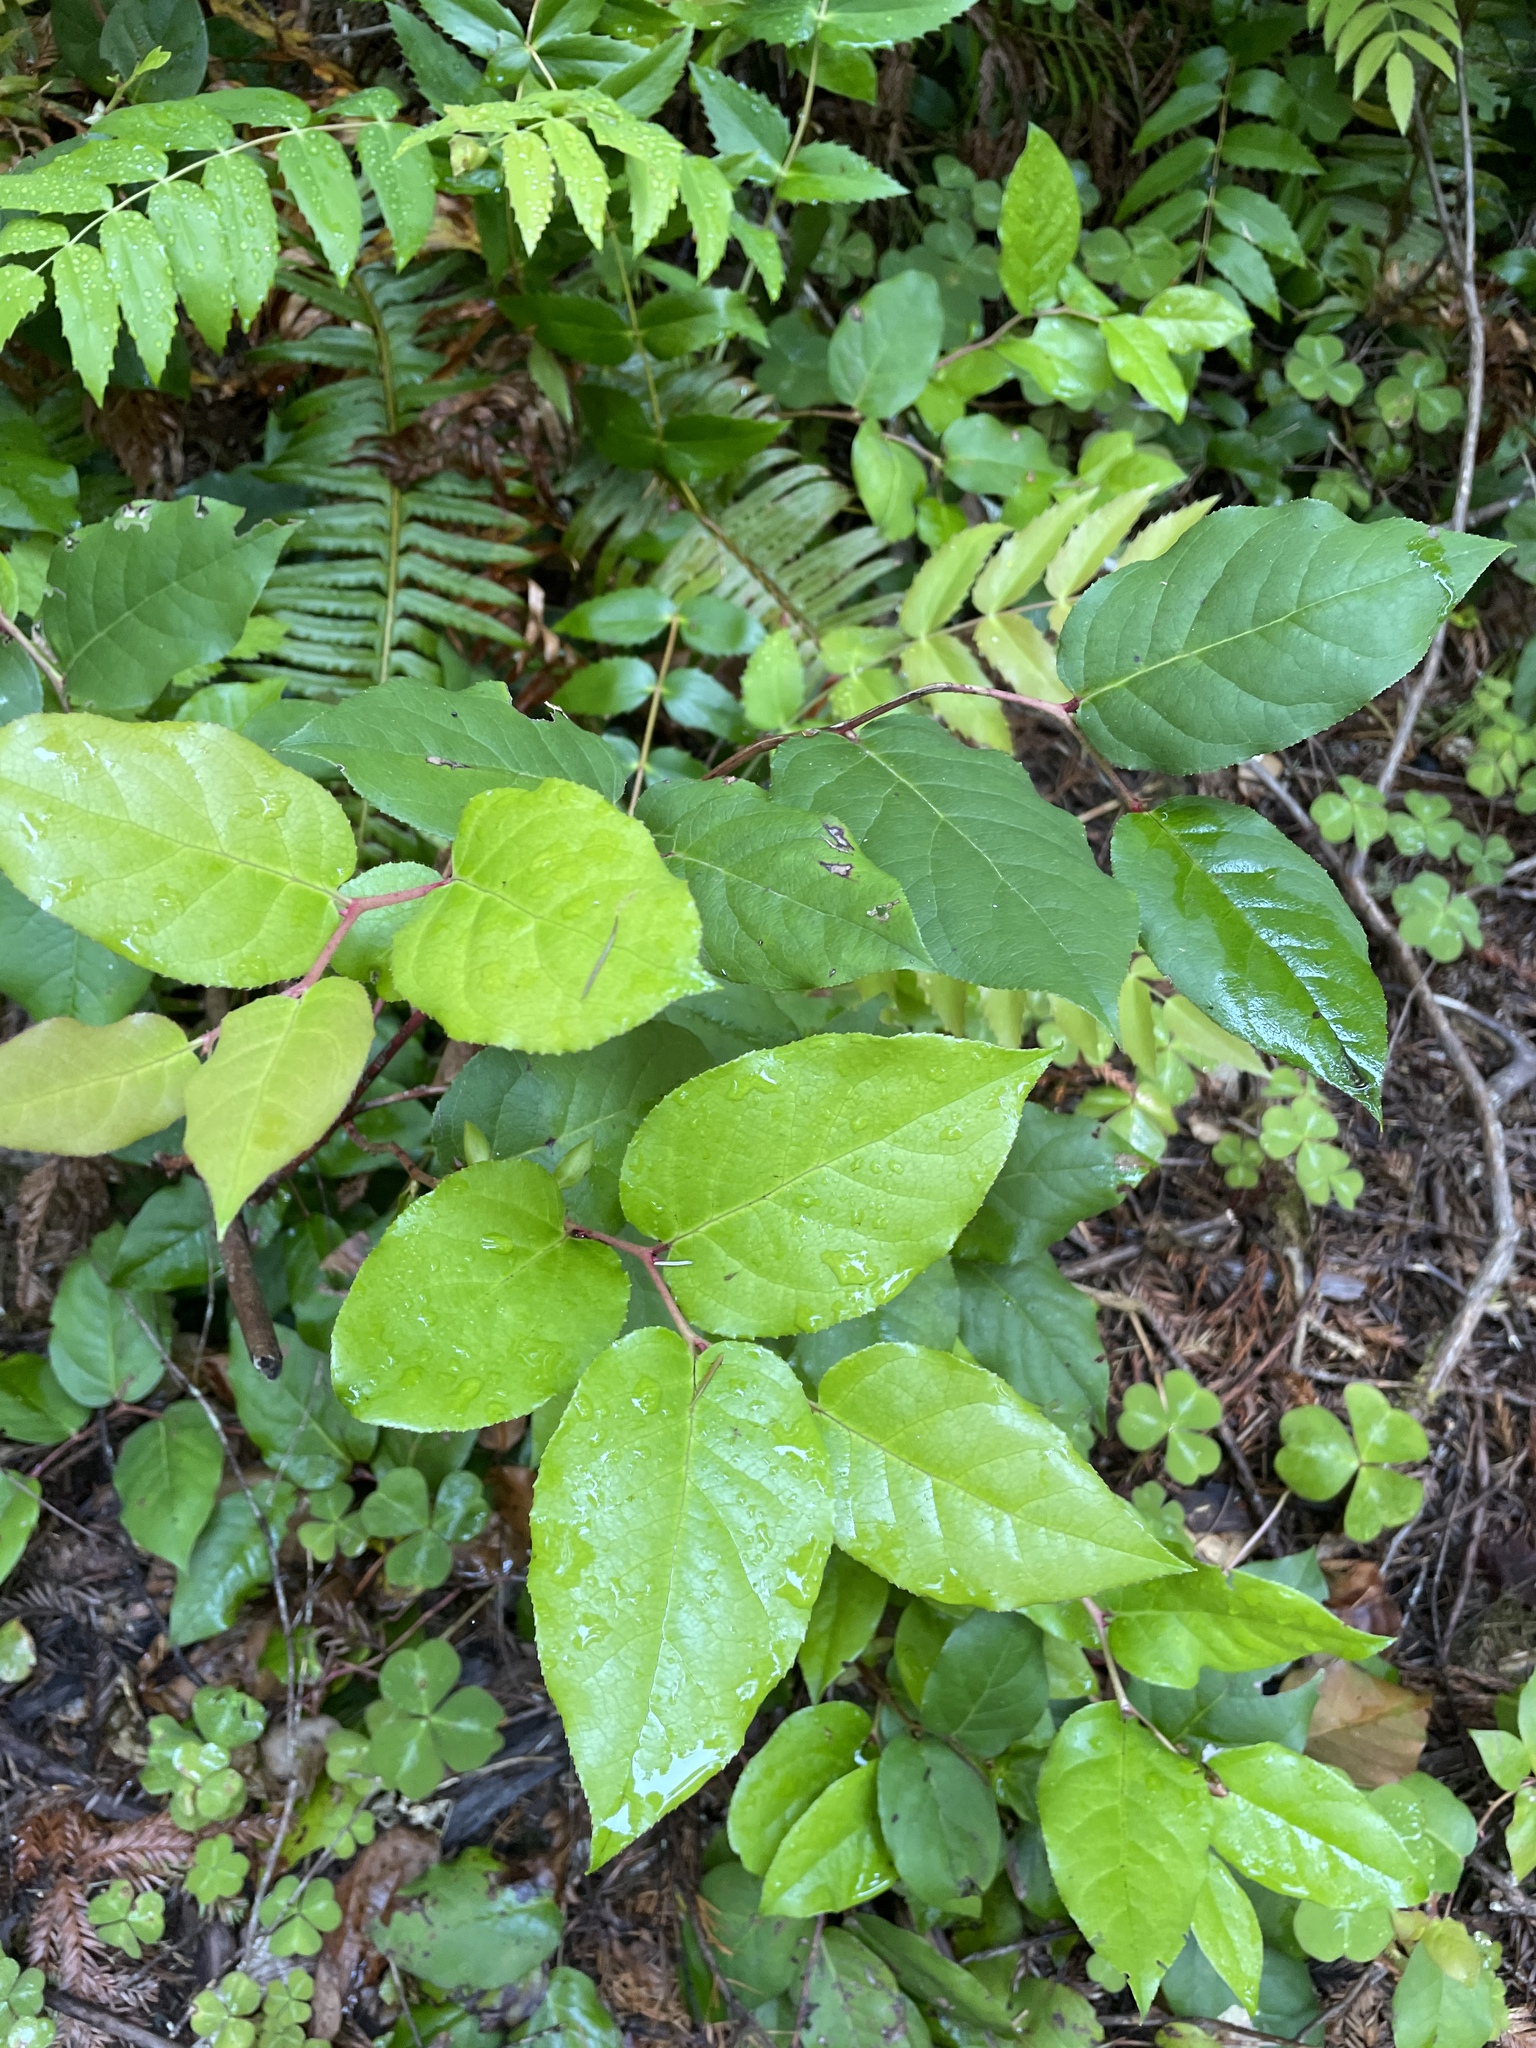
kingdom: Plantae
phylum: Tracheophyta
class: Magnoliopsida
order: Ericales
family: Ericaceae
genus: Gaultheria
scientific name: Gaultheria shallon
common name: Shallon
